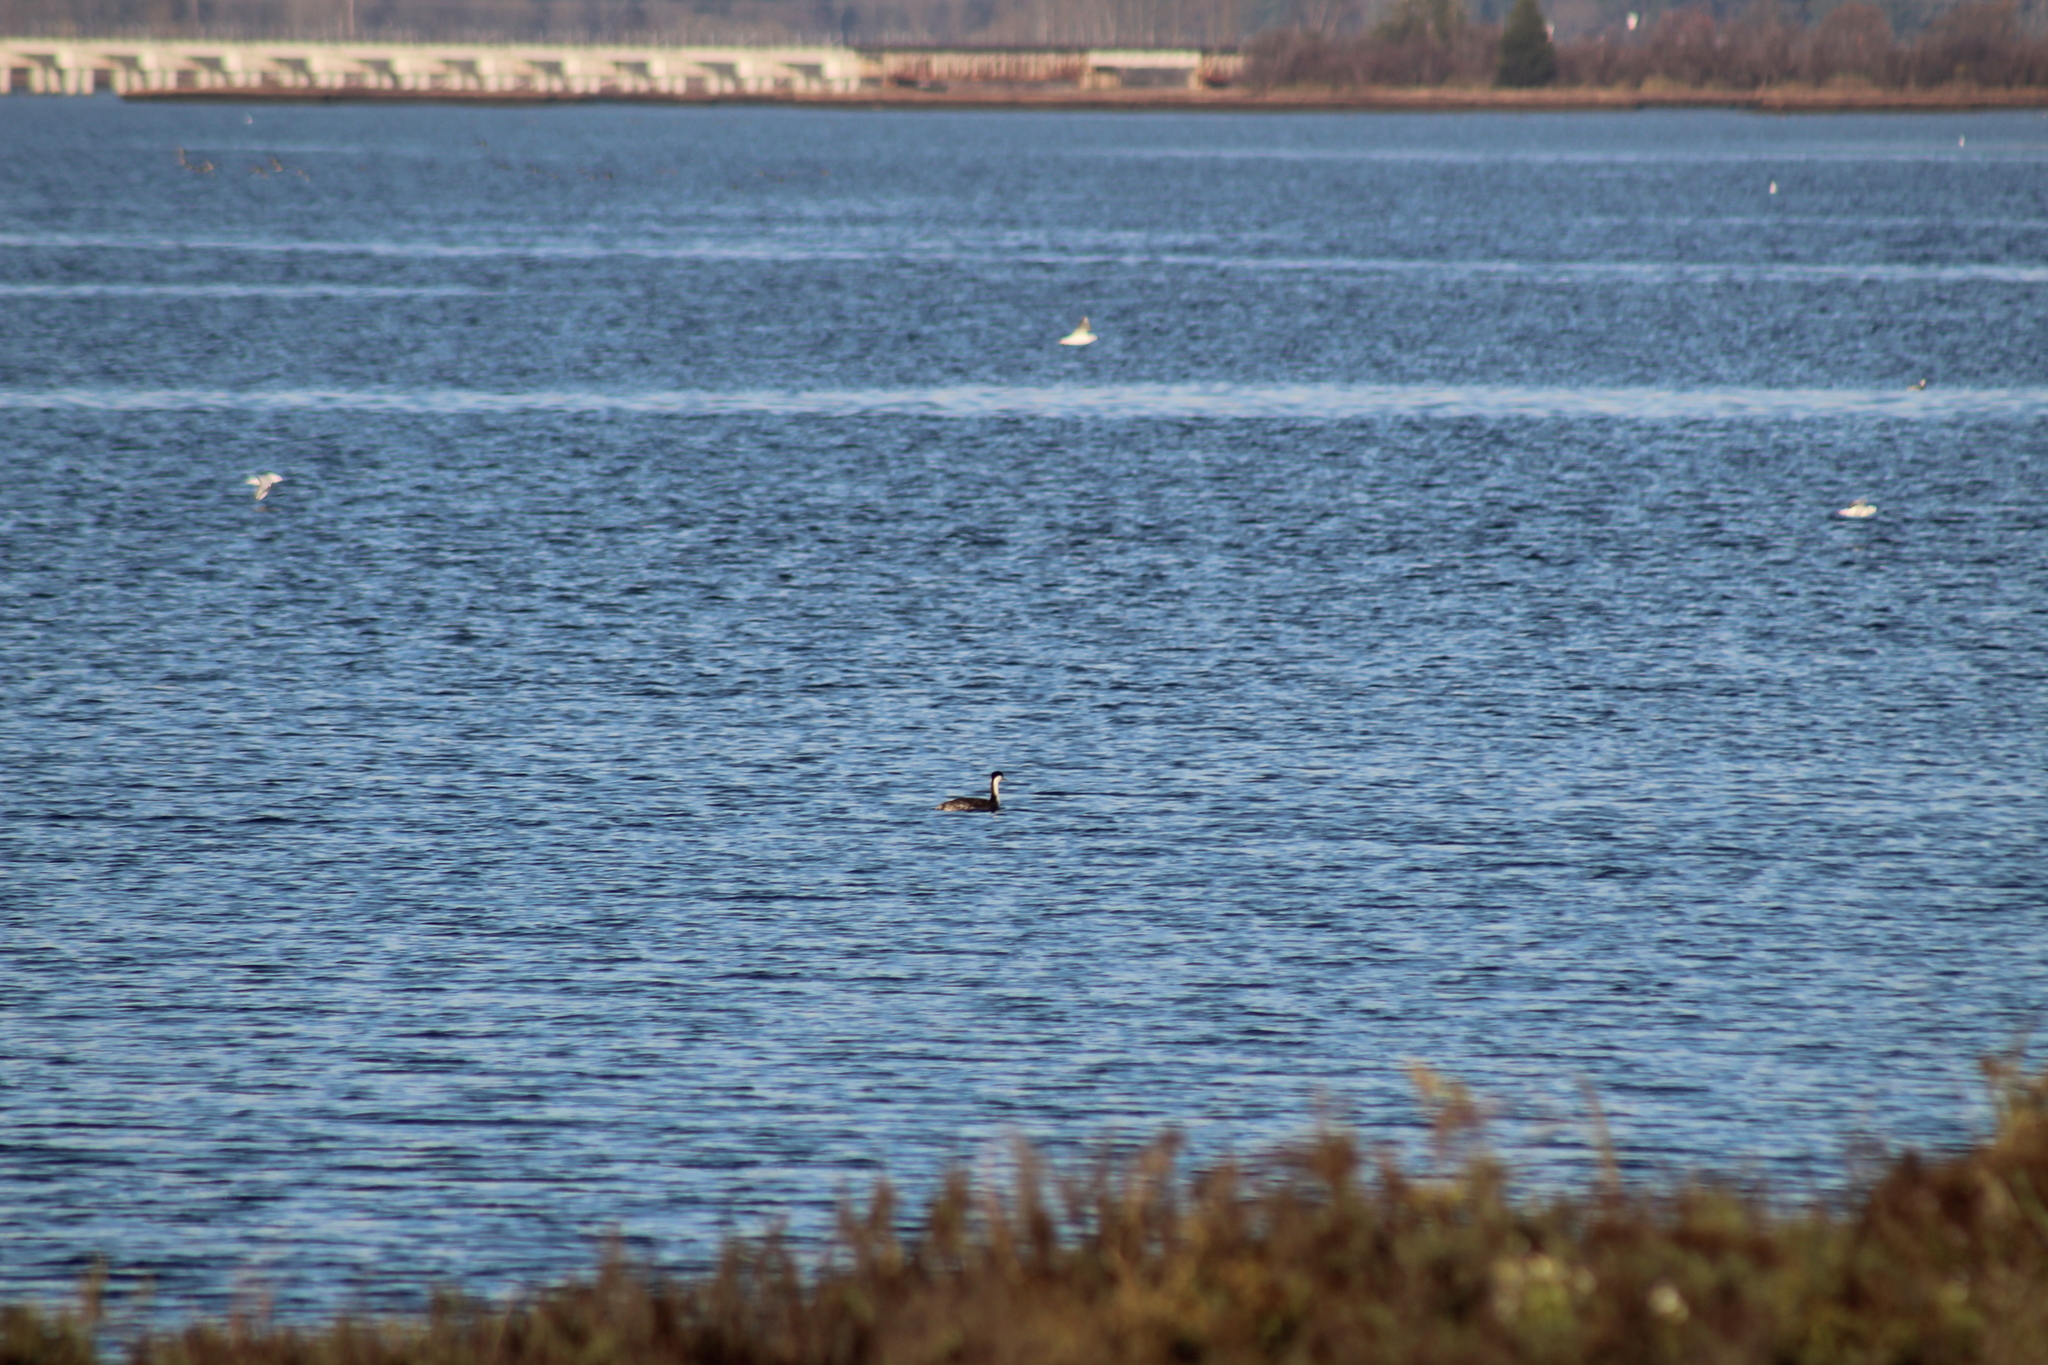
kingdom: Animalia
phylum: Chordata
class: Aves
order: Podicipediformes
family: Podicipedidae
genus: Aechmophorus
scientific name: Aechmophorus occidentalis
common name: Western grebe
